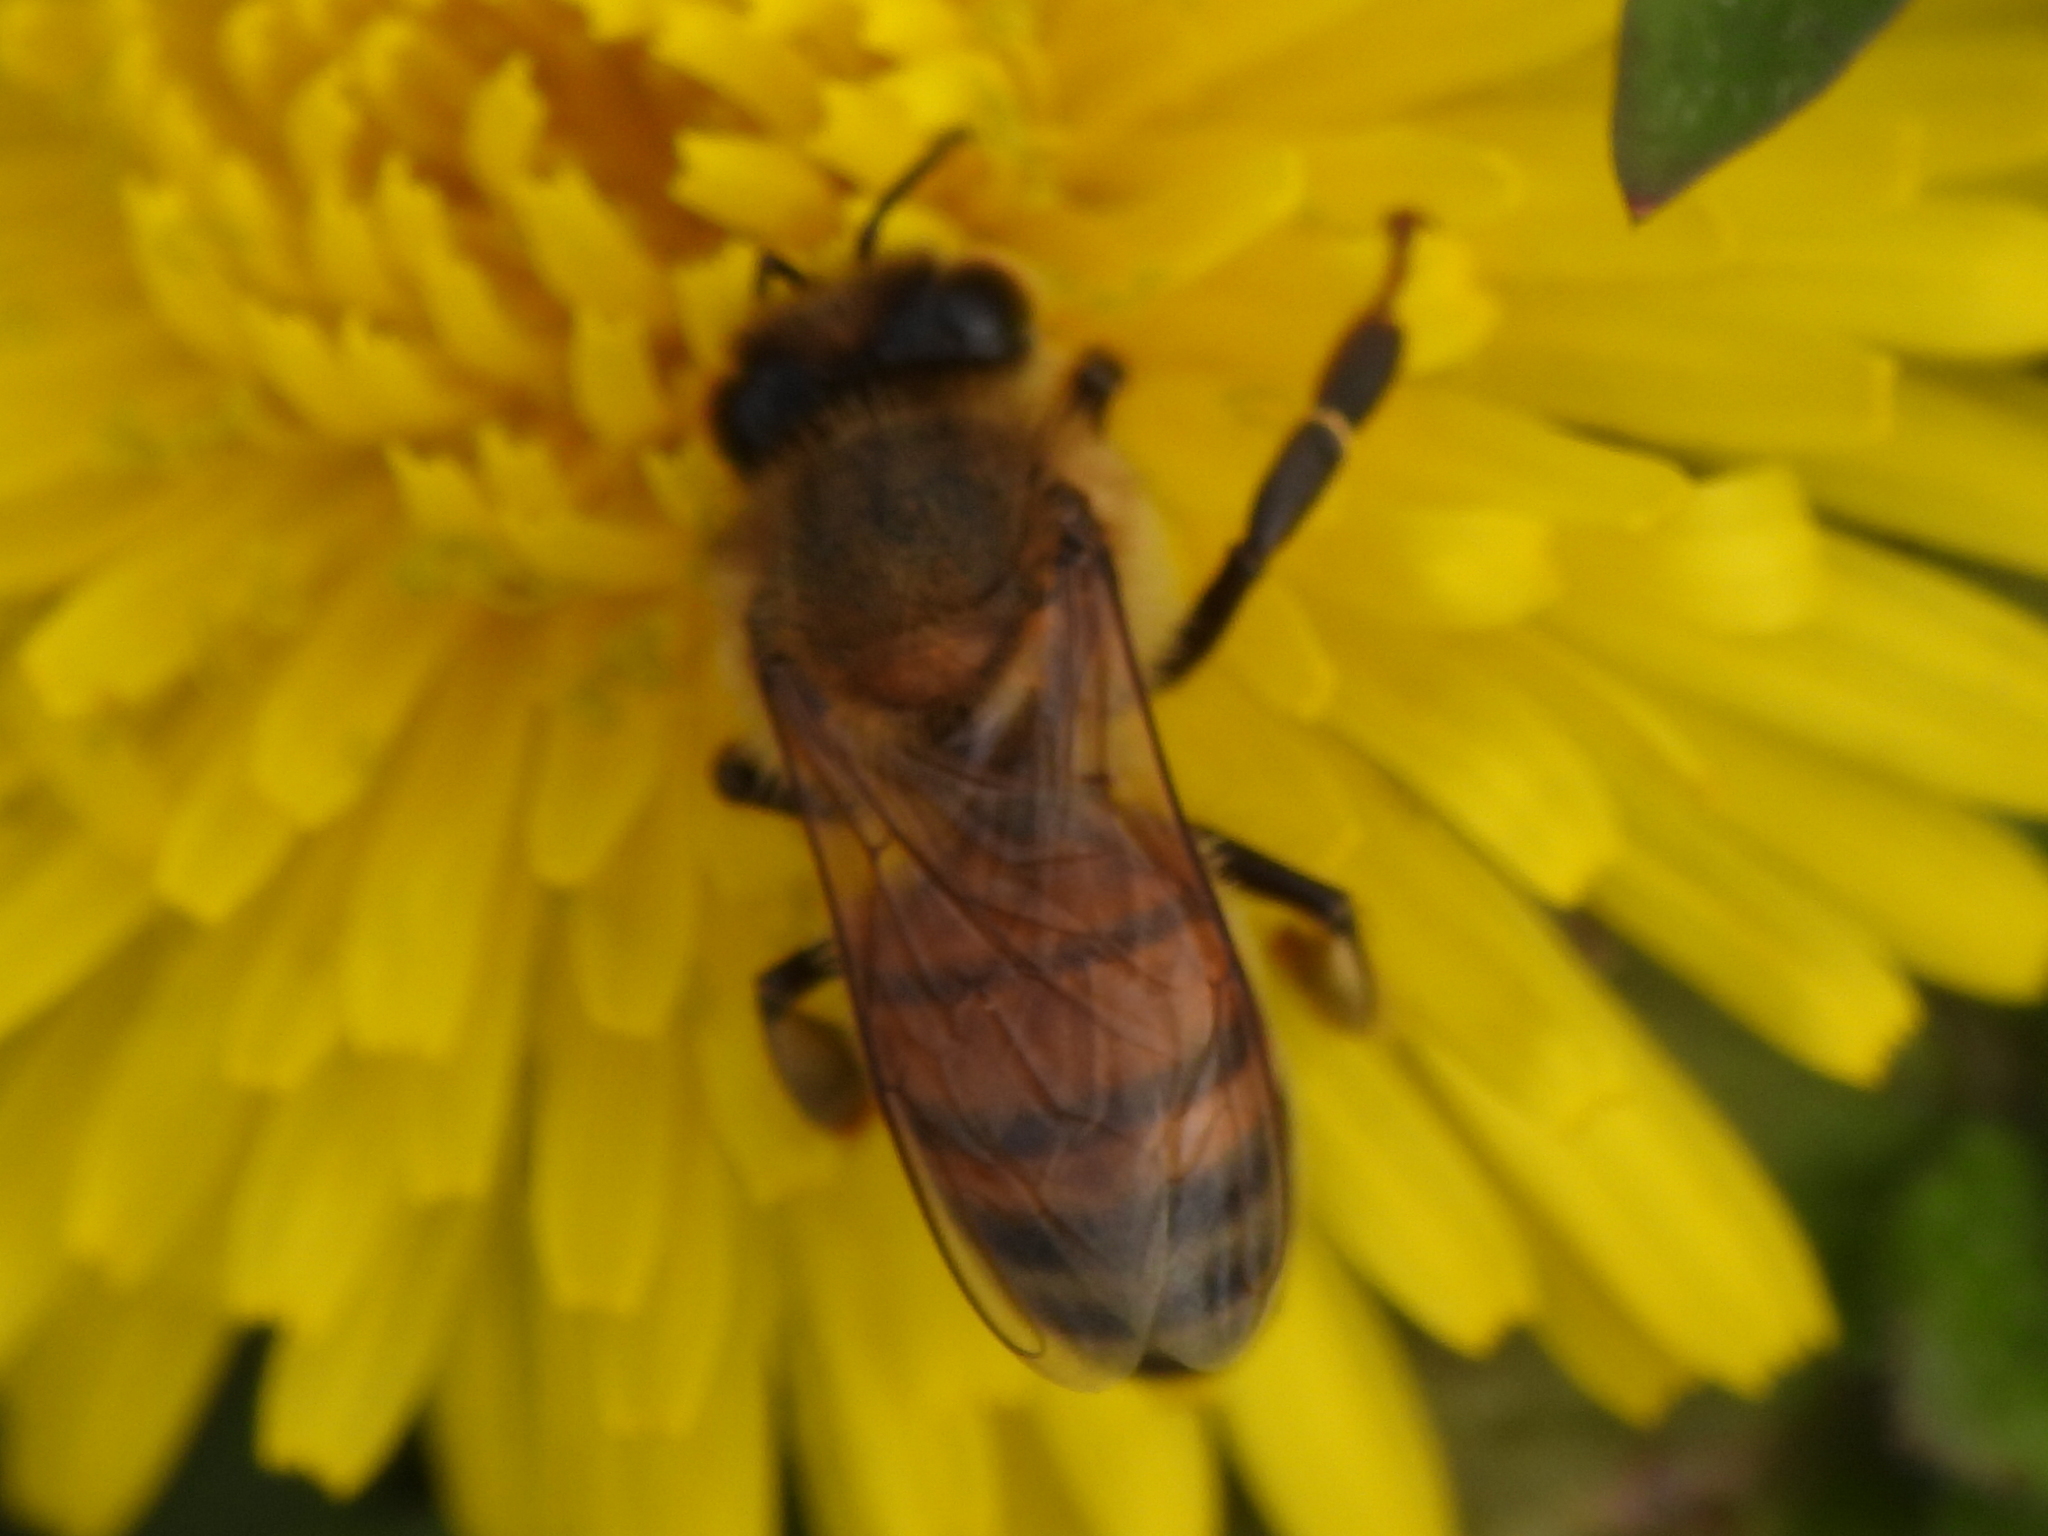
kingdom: Animalia
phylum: Arthropoda
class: Insecta
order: Hymenoptera
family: Apidae
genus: Apis
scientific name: Apis mellifera
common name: Honey bee
